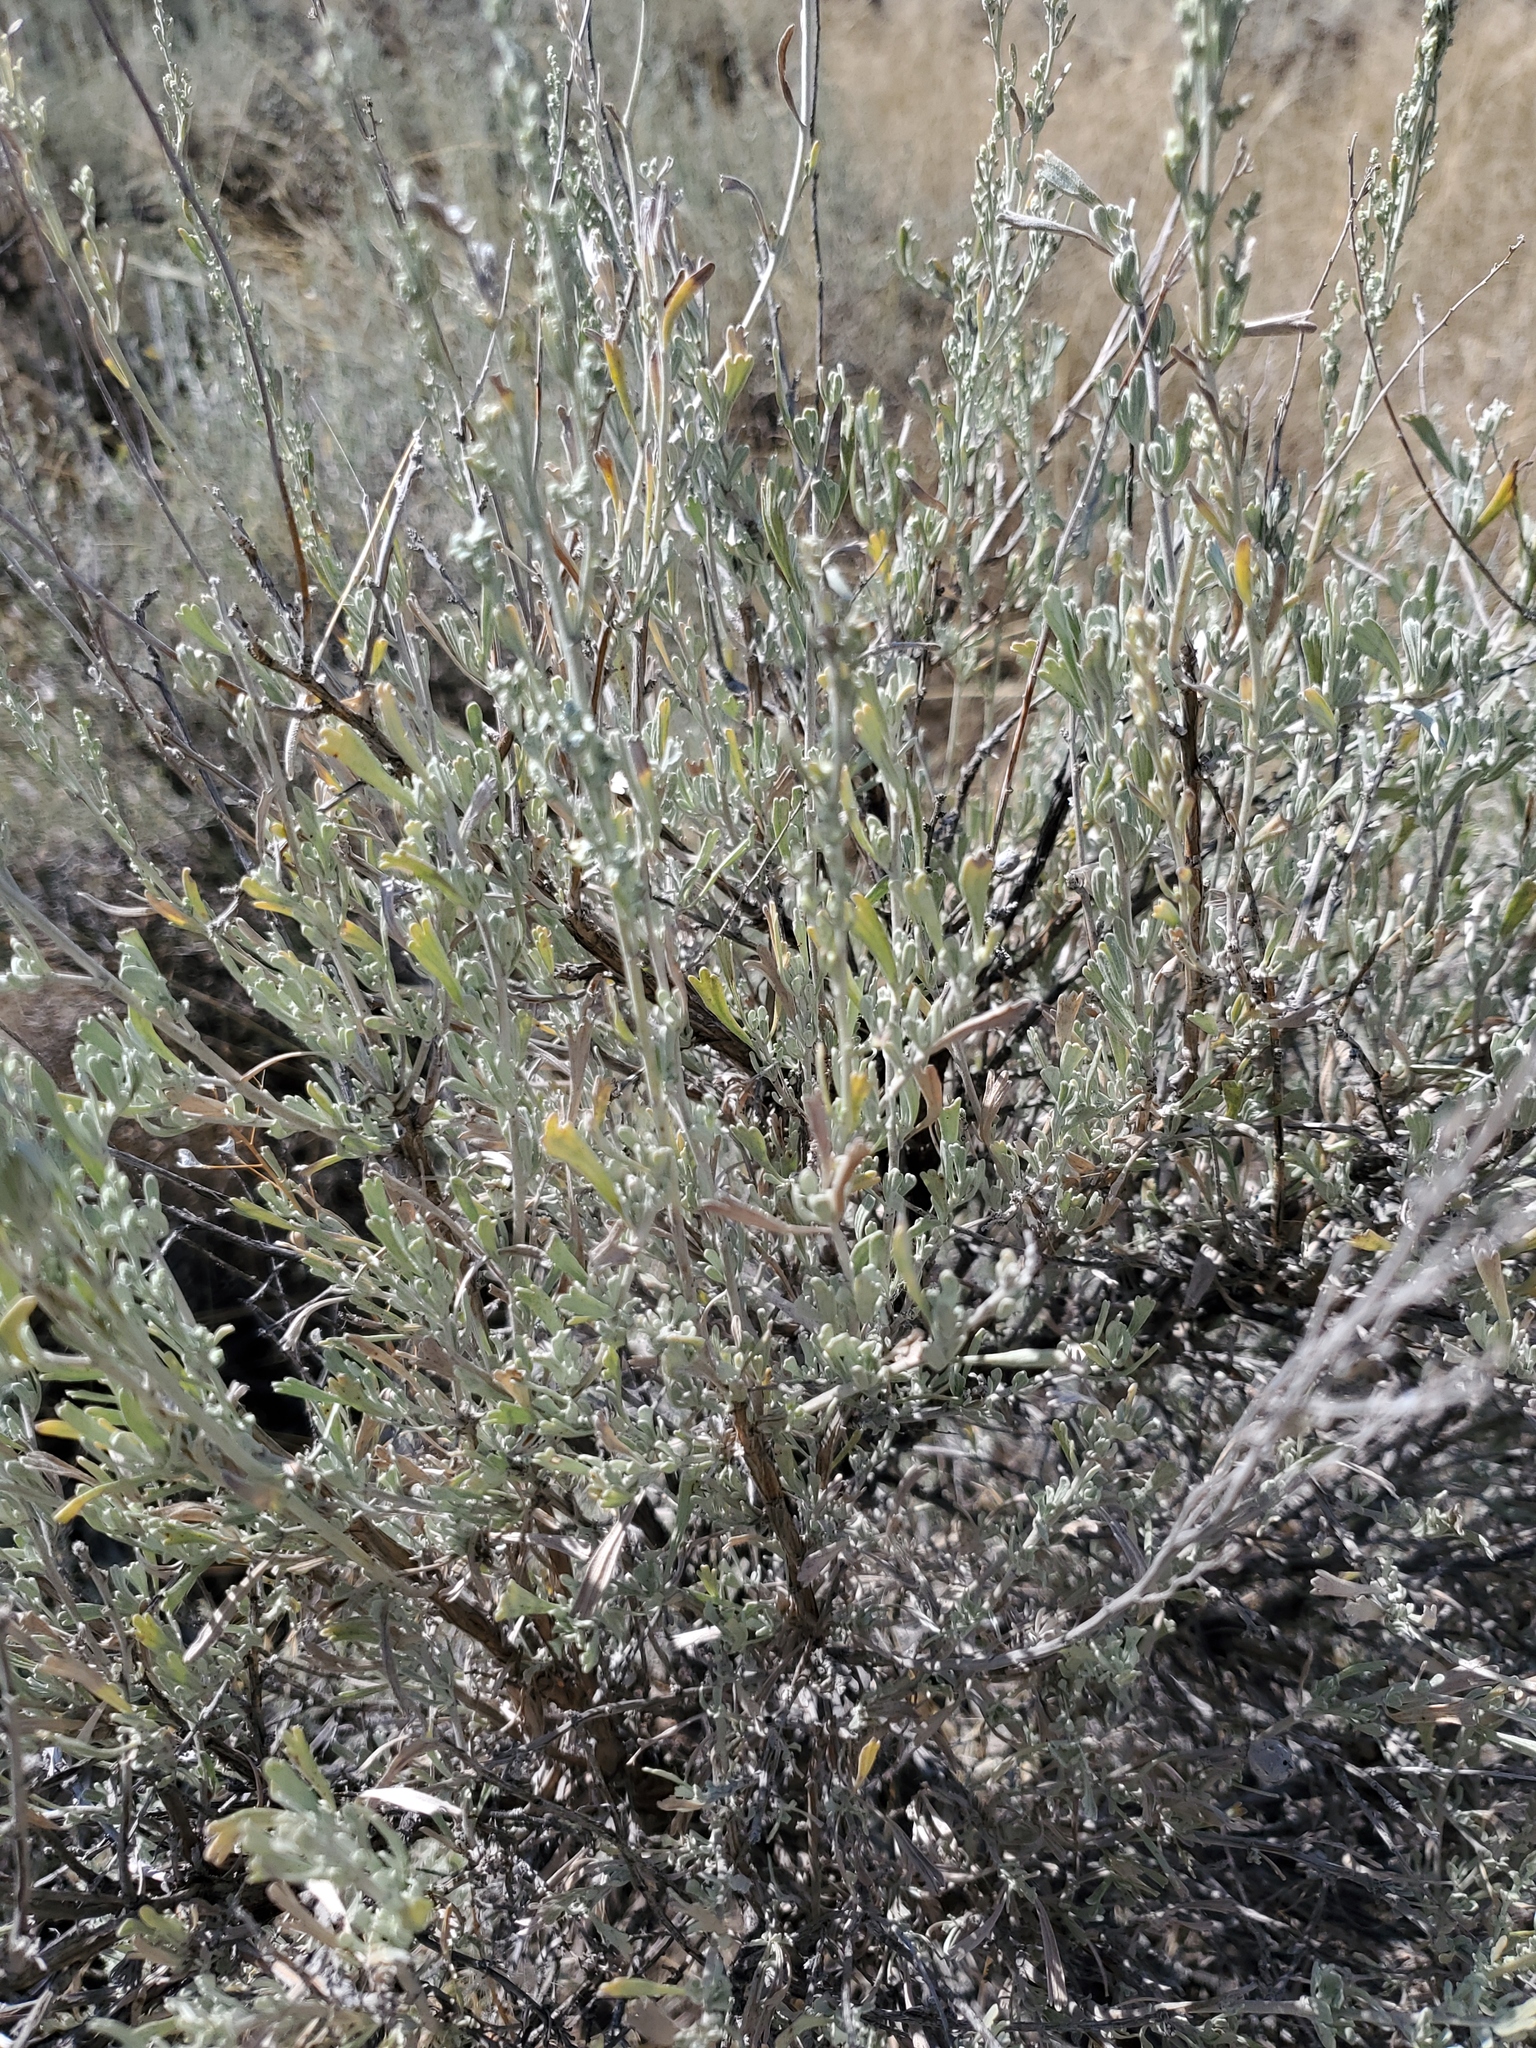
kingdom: Plantae
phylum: Tracheophyta
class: Magnoliopsida
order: Asterales
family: Asteraceae
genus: Artemisia
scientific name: Artemisia tridentata
